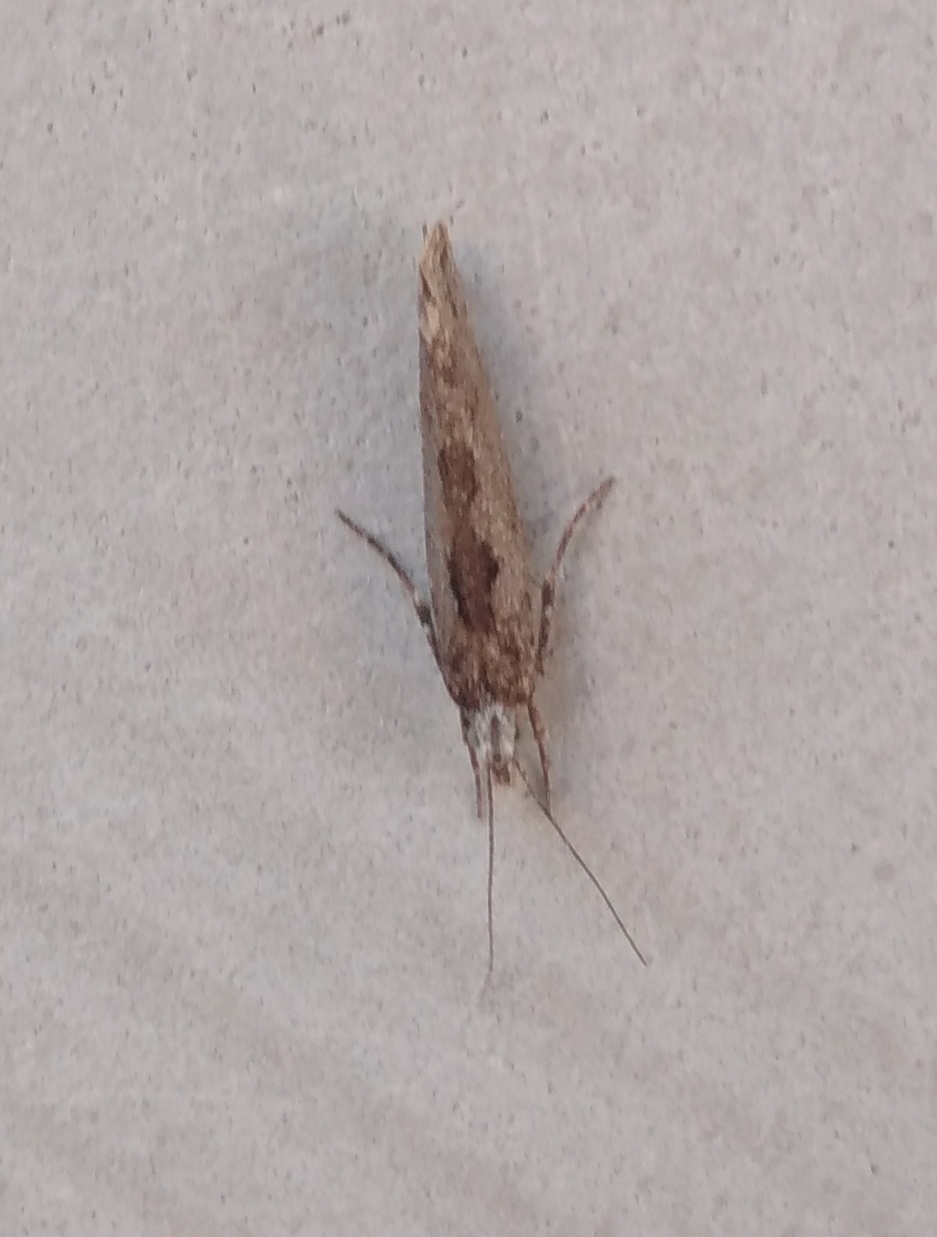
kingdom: Animalia
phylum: Arthropoda
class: Insecta
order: Lepidoptera
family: Ypsolophidae
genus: Ypsolopha
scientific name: Ypsolopha vittella
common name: Elm smudge
